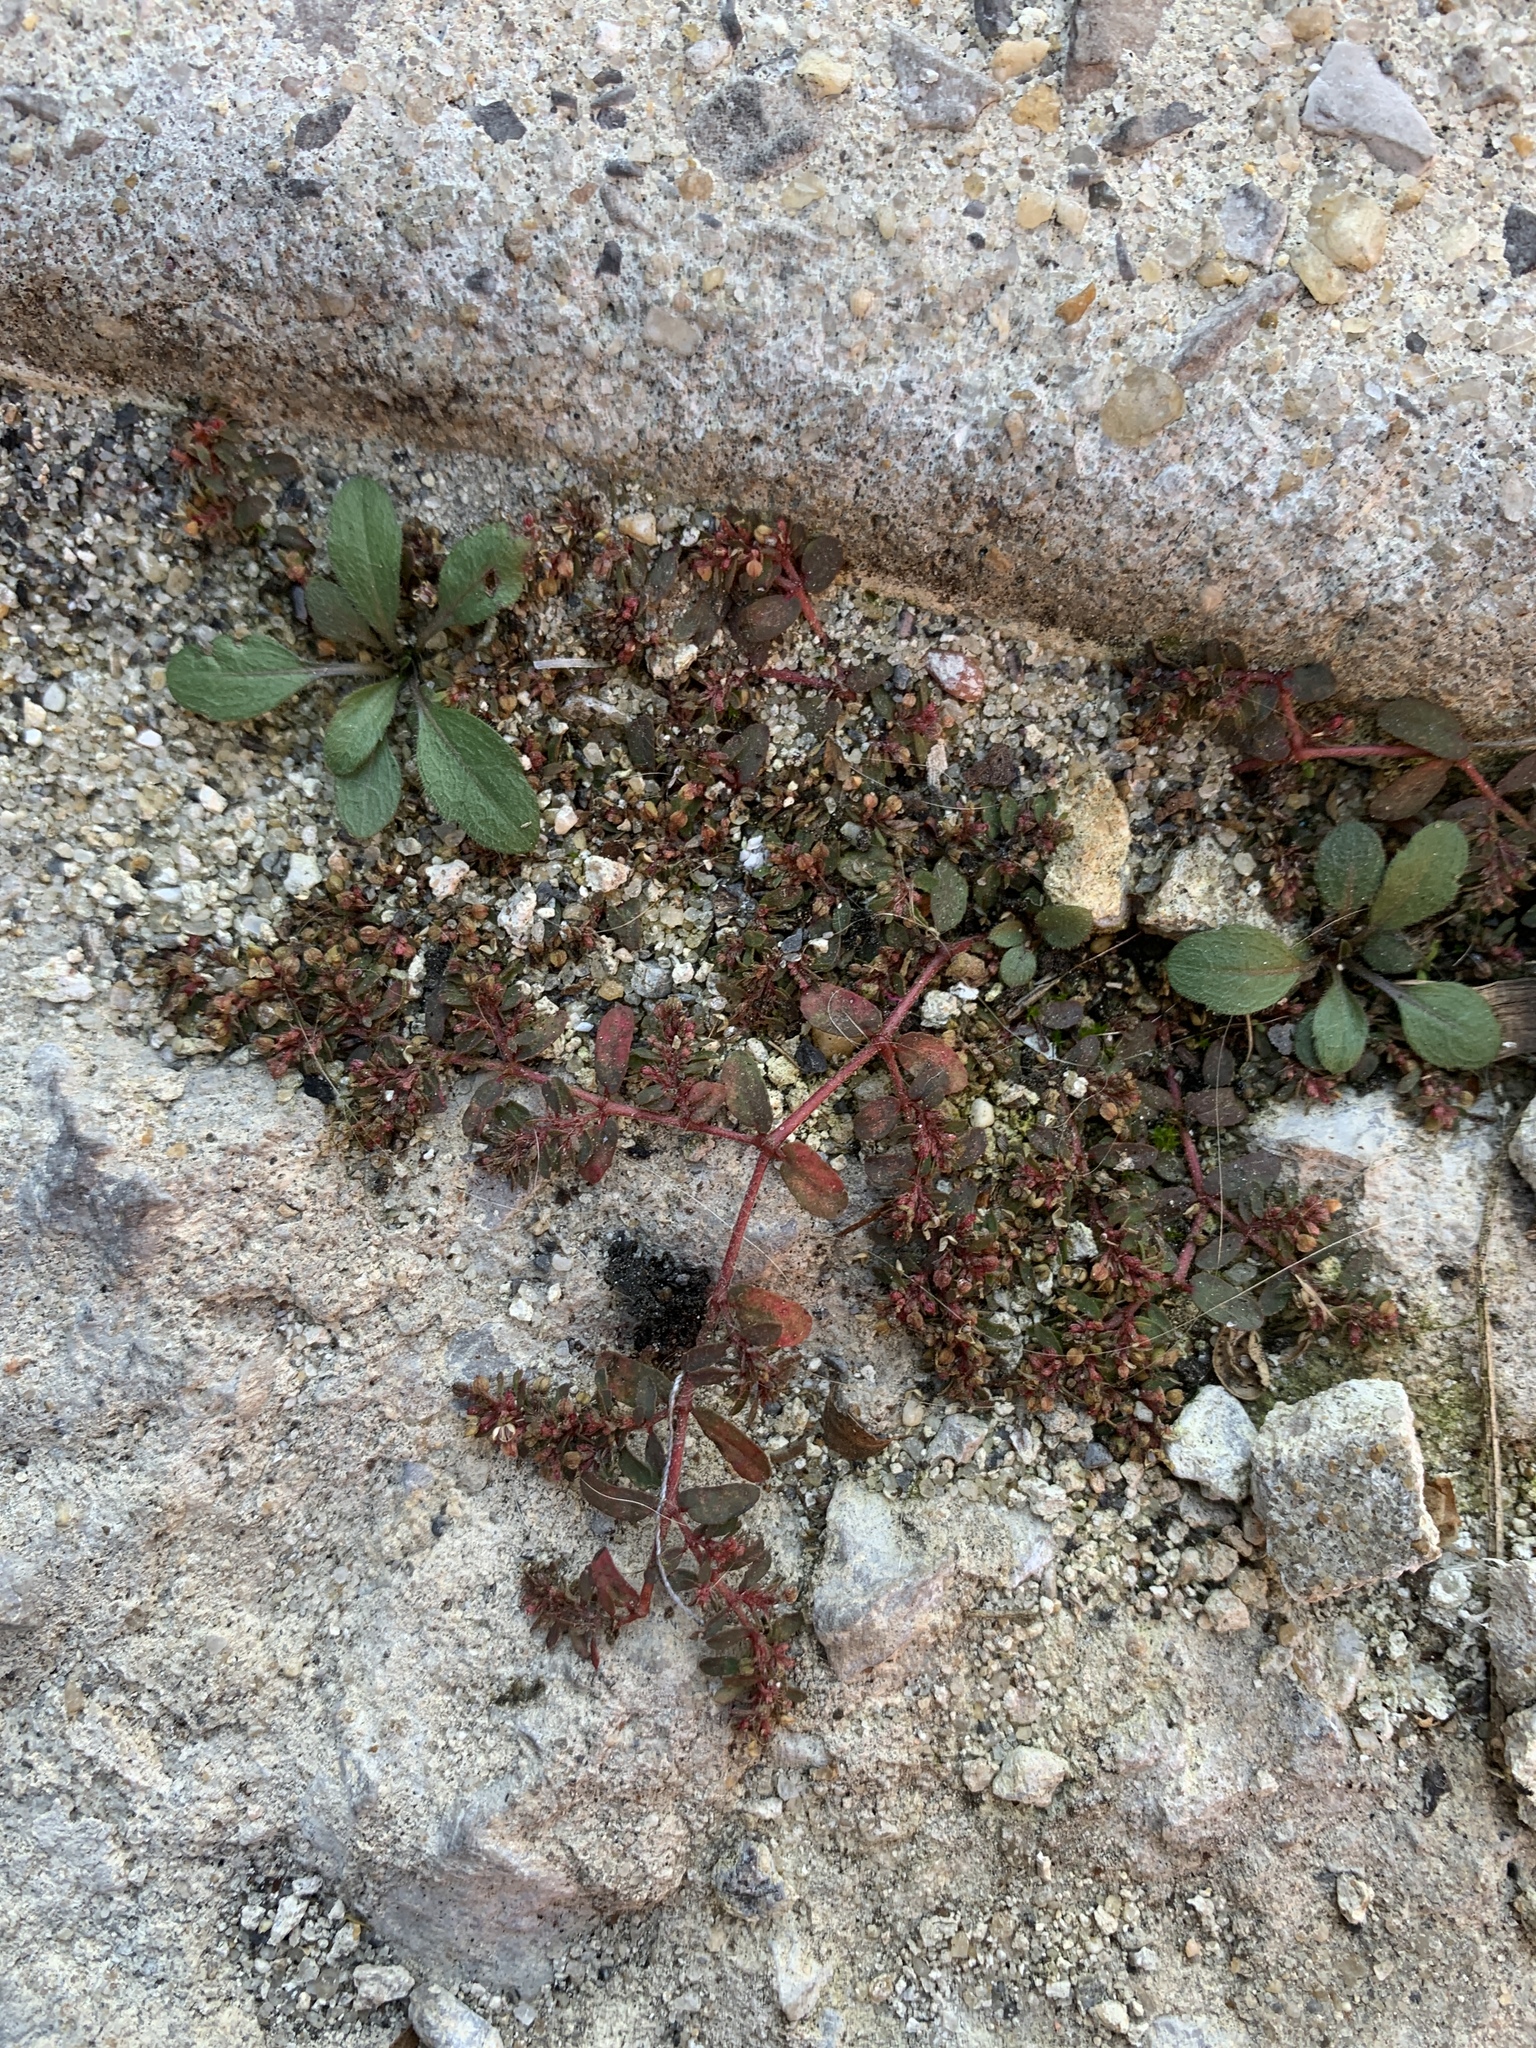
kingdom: Plantae
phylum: Tracheophyta
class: Magnoliopsida
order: Malpighiales
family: Euphorbiaceae
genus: Euphorbia
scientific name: Euphorbia maculata
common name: Spotted spurge
